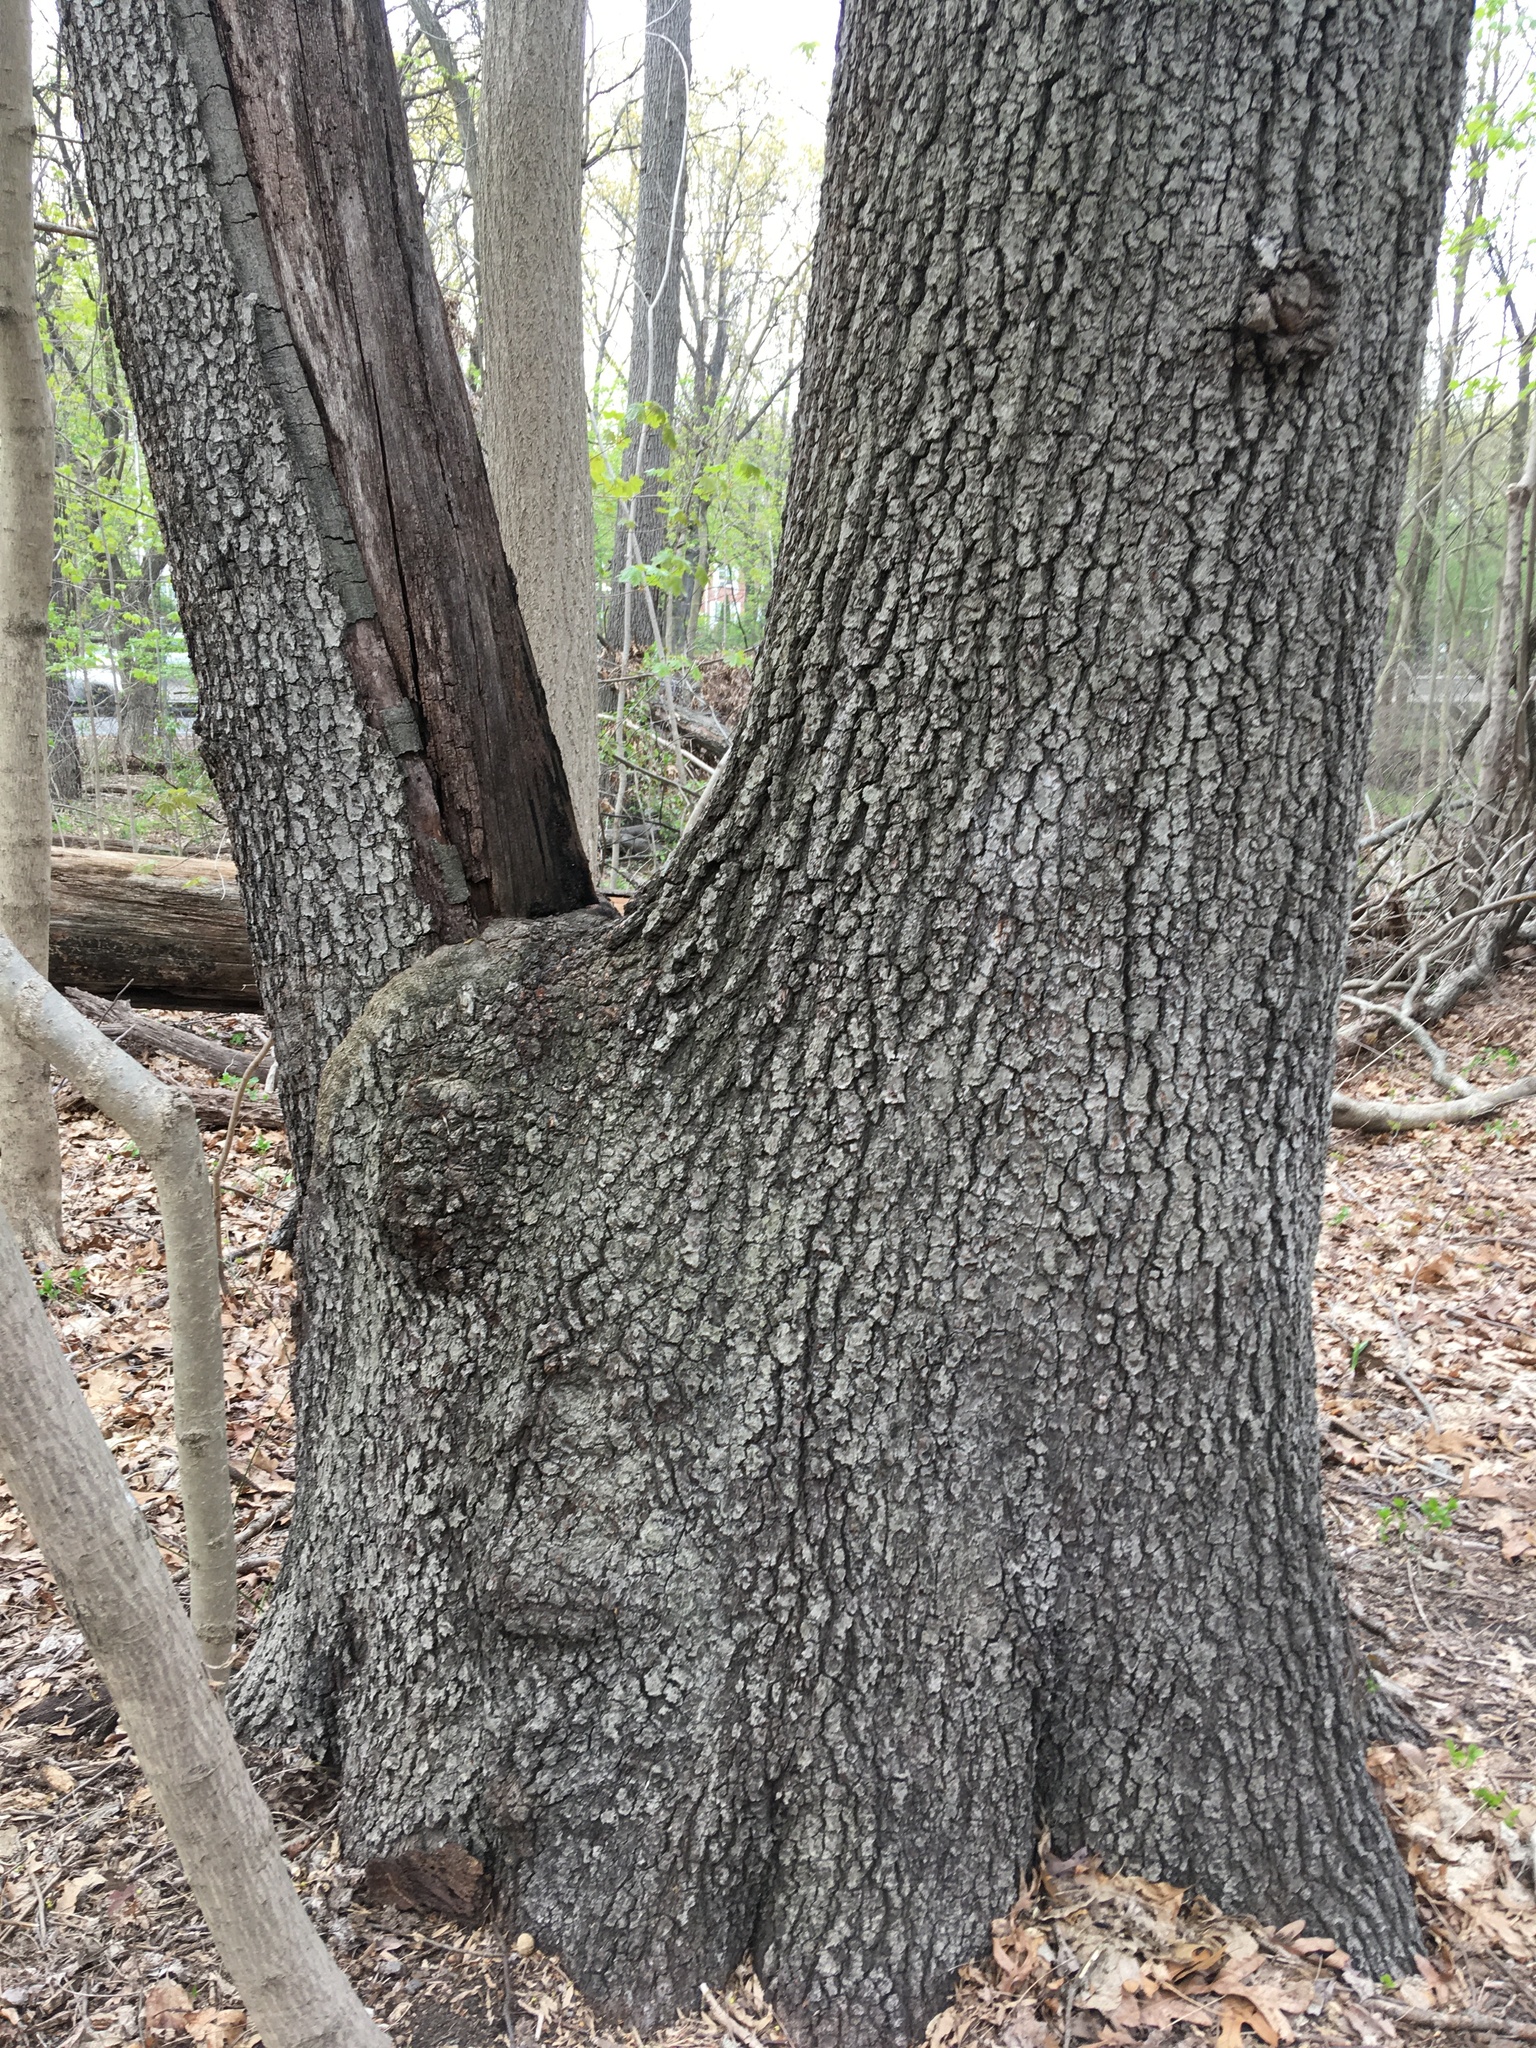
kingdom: Plantae
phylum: Tracheophyta
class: Magnoliopsida
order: Fagales
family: Fagaceae
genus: Quercus
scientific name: Quercus velutina
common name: Black oak
